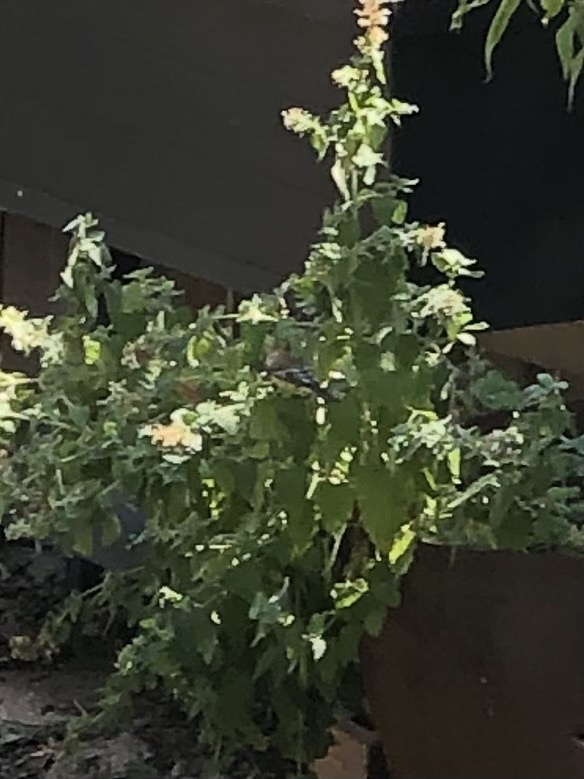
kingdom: Animalia
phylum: Chordata
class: Aves
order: Passeriformes
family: Fringillidae
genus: Spinus
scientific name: Spinus psaltria
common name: Lesser goldfinch
